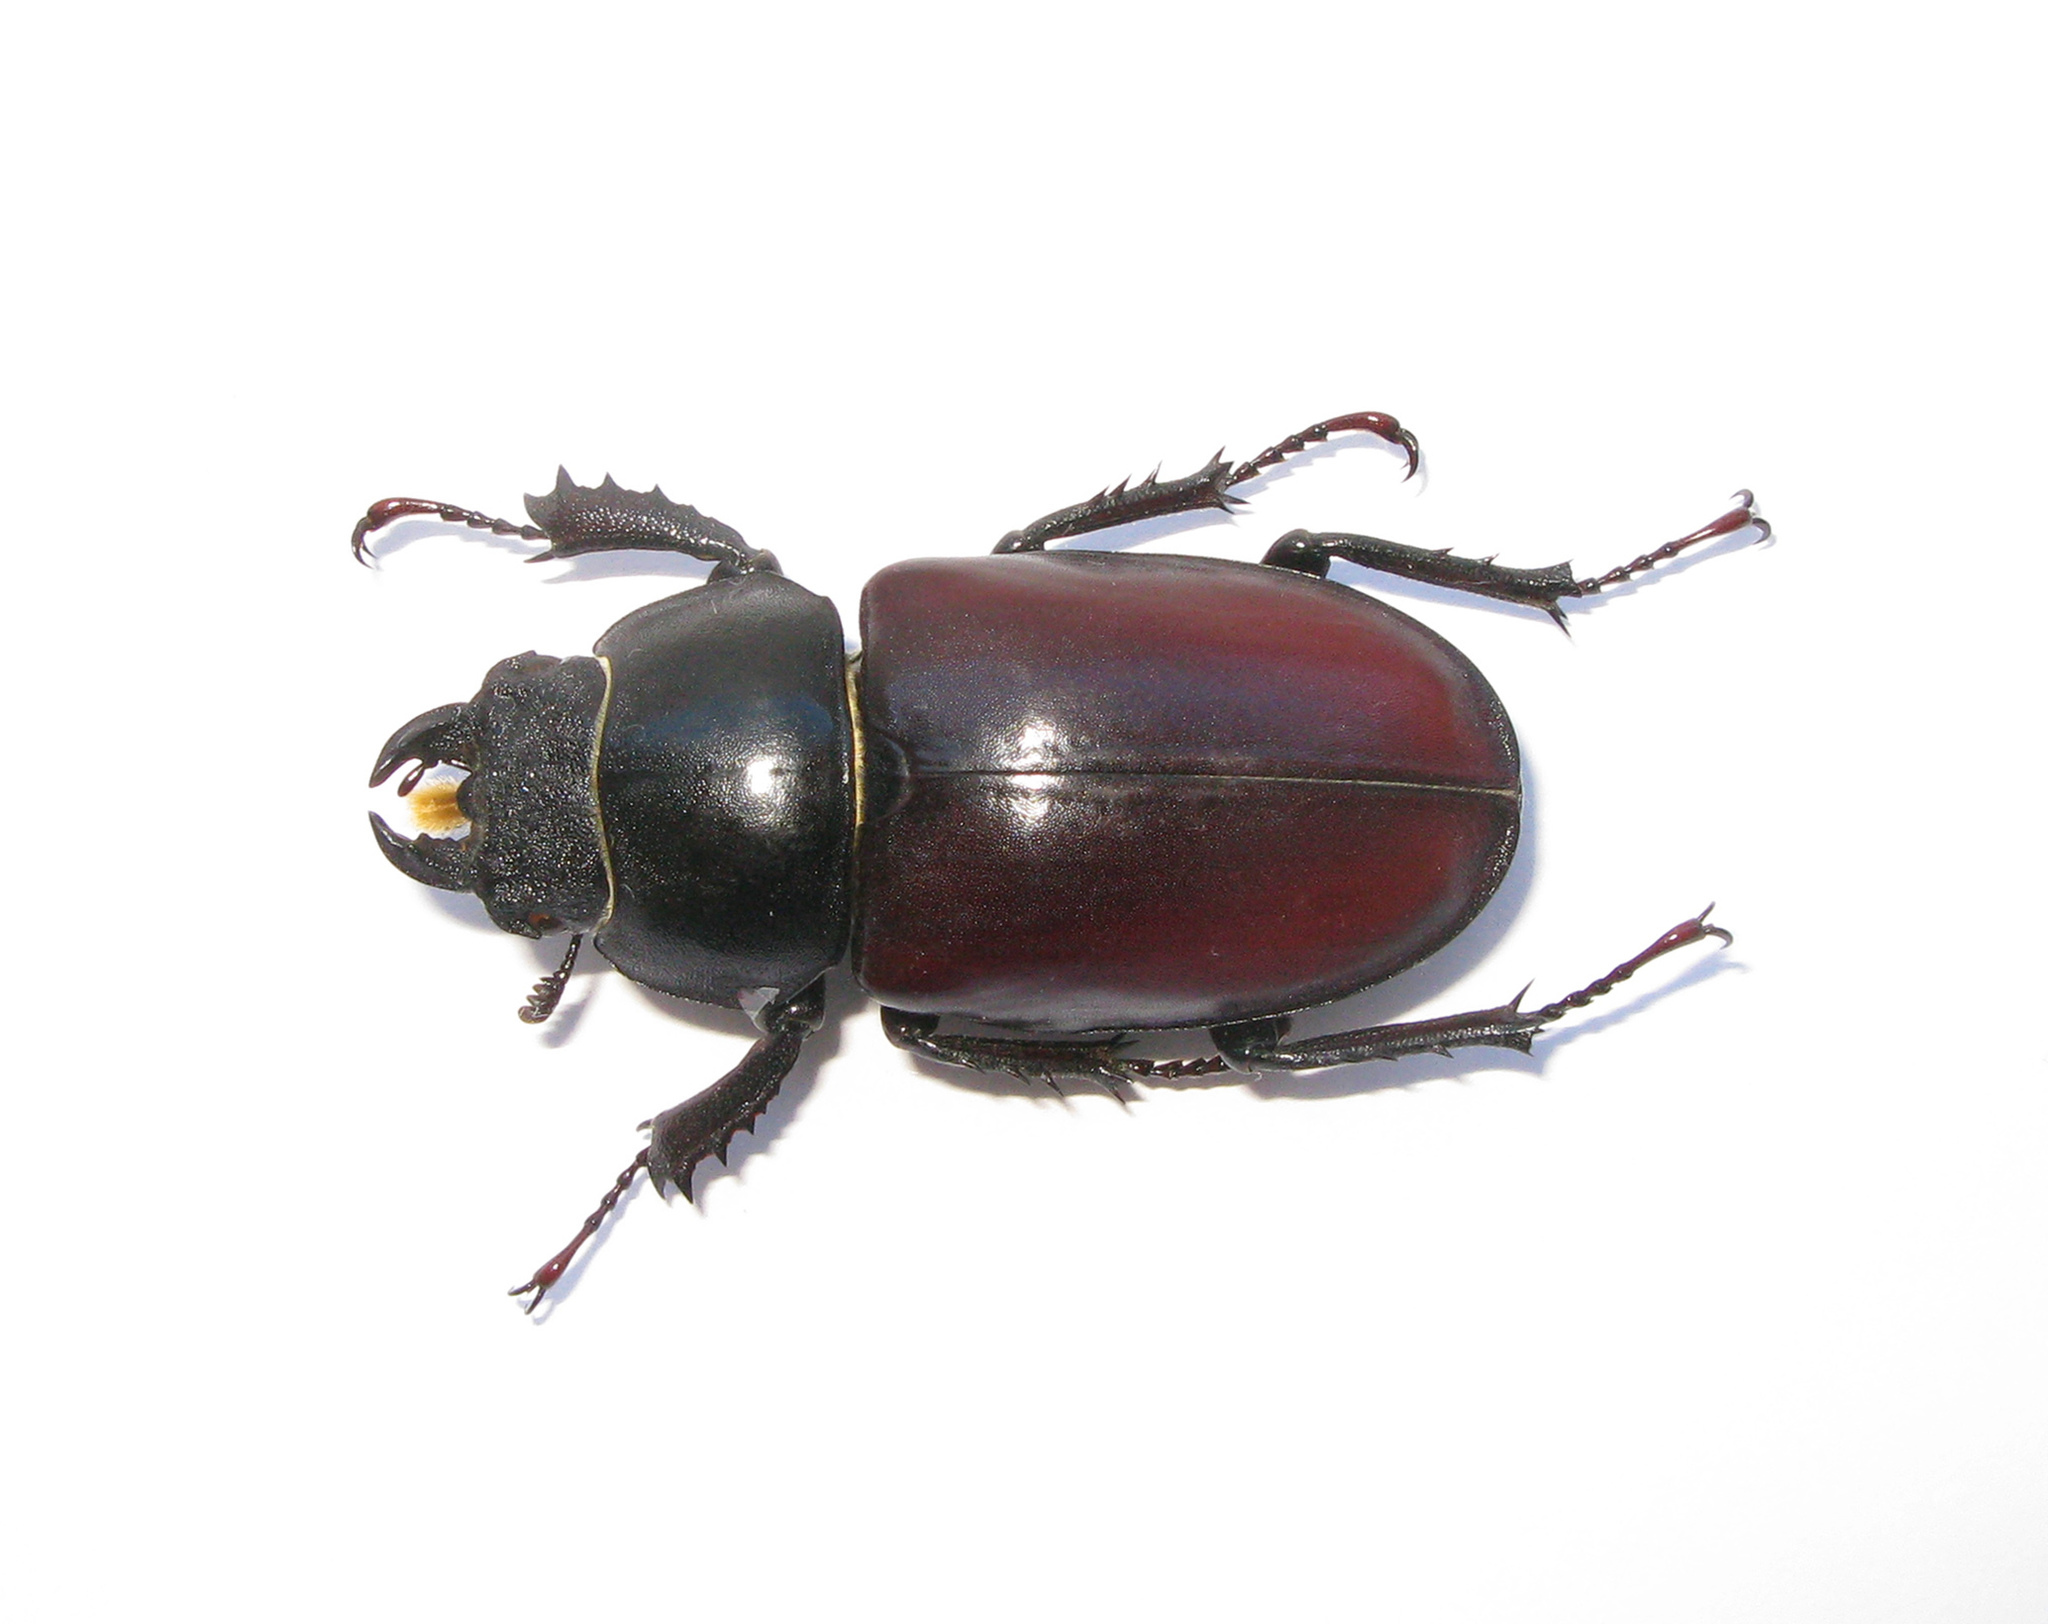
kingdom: Animalia
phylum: Arthropoda
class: Insecta
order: Coleoptera
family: Lucanidae
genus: Lucanus
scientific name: Lucanus cervus
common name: Stag beetle
